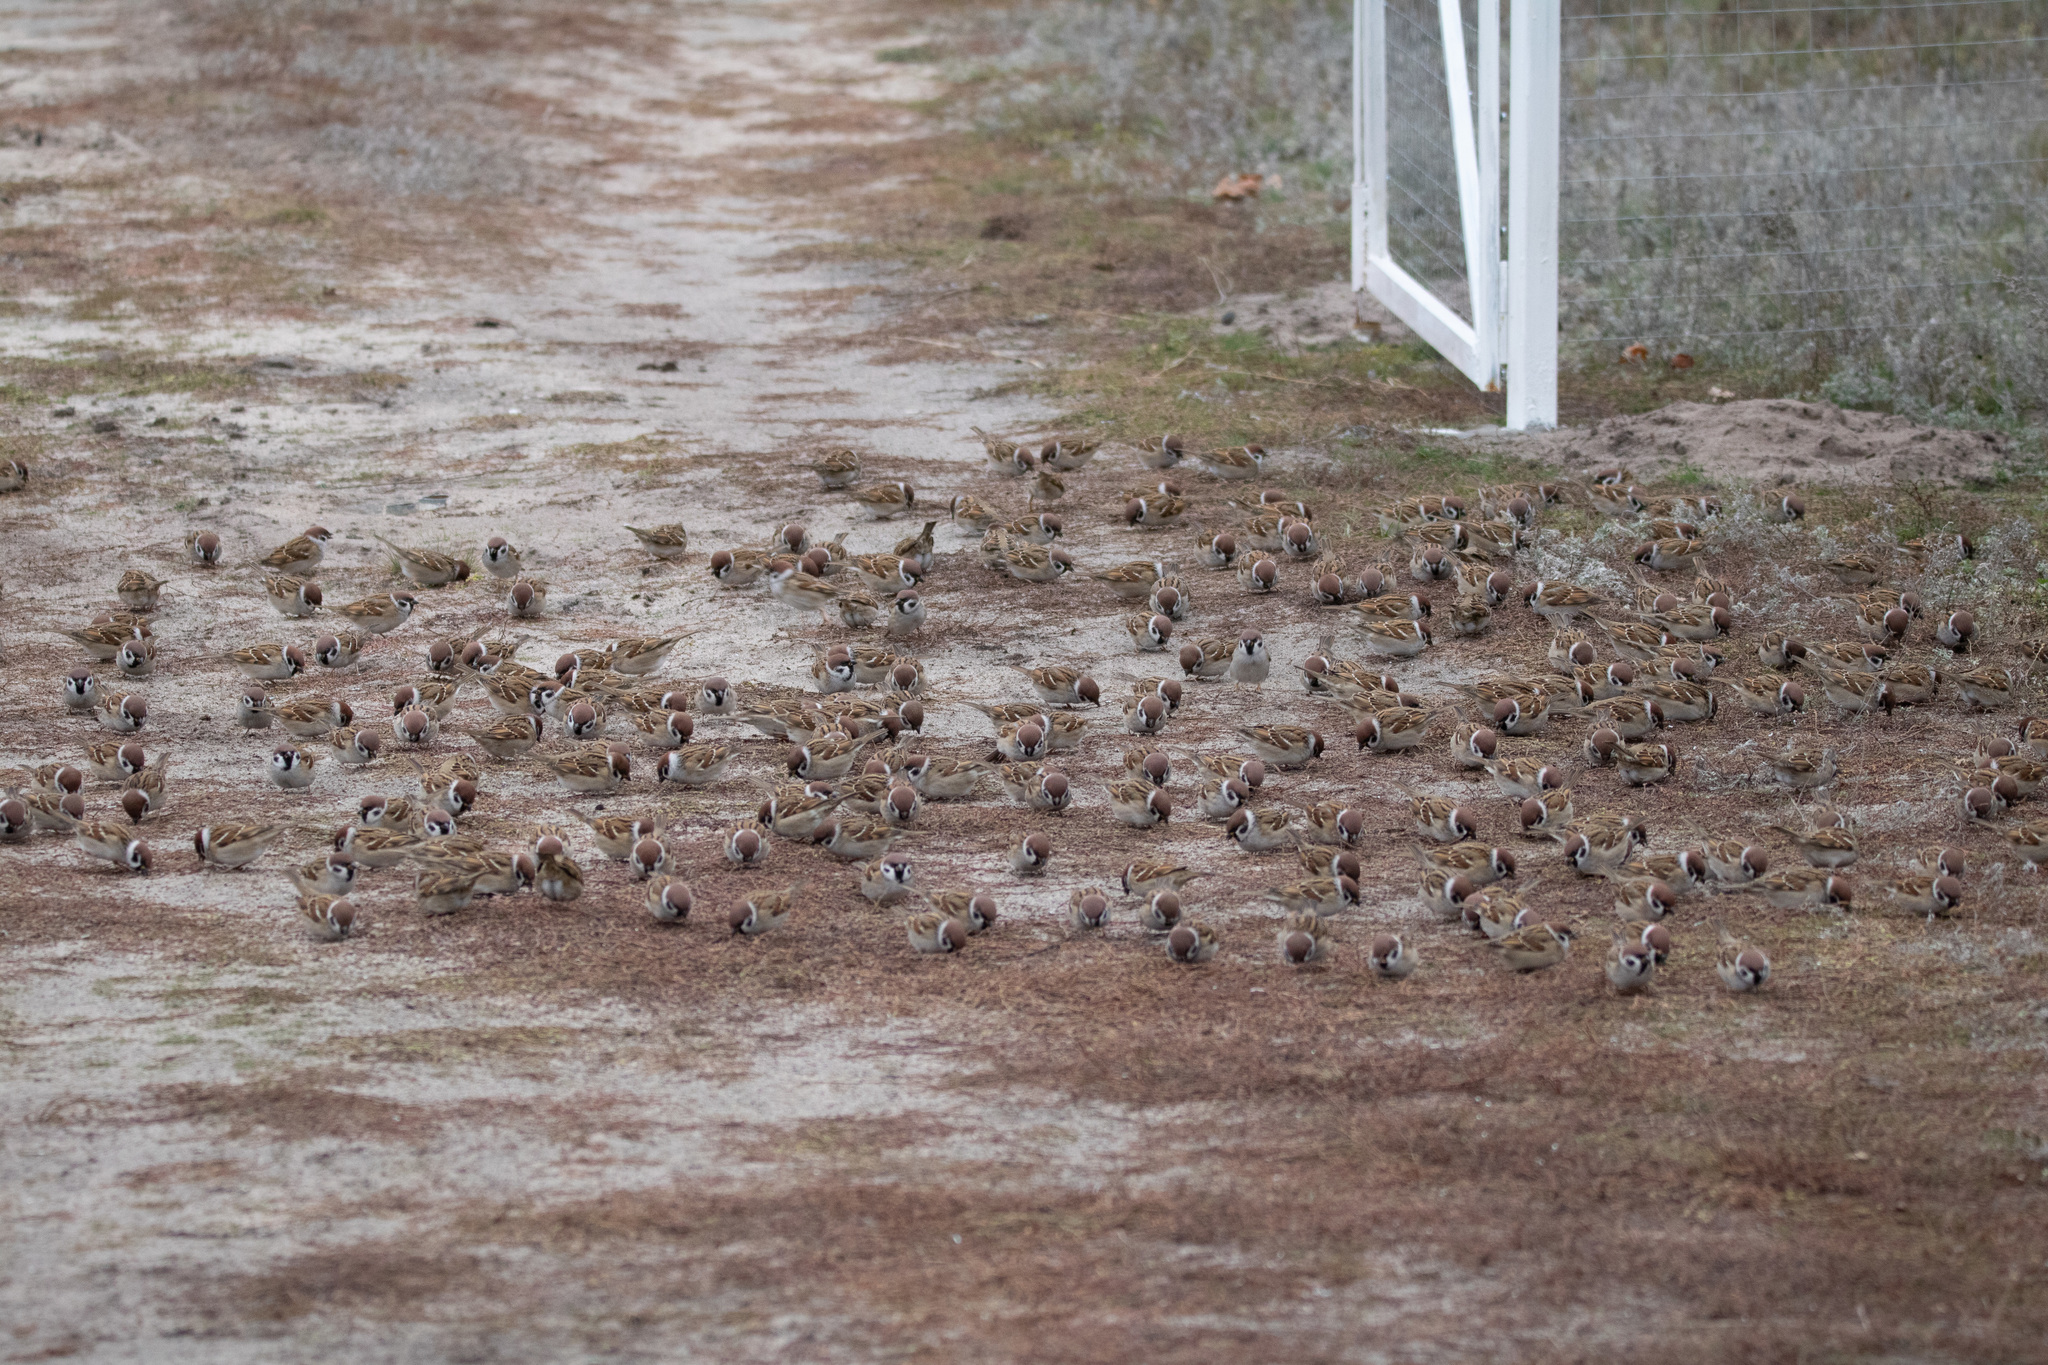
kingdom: Animalia
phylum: Chordata
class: Aves
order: Passeriformes
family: Passeridae
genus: Passer
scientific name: Passer montanus
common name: Eurasian tree sparrow
